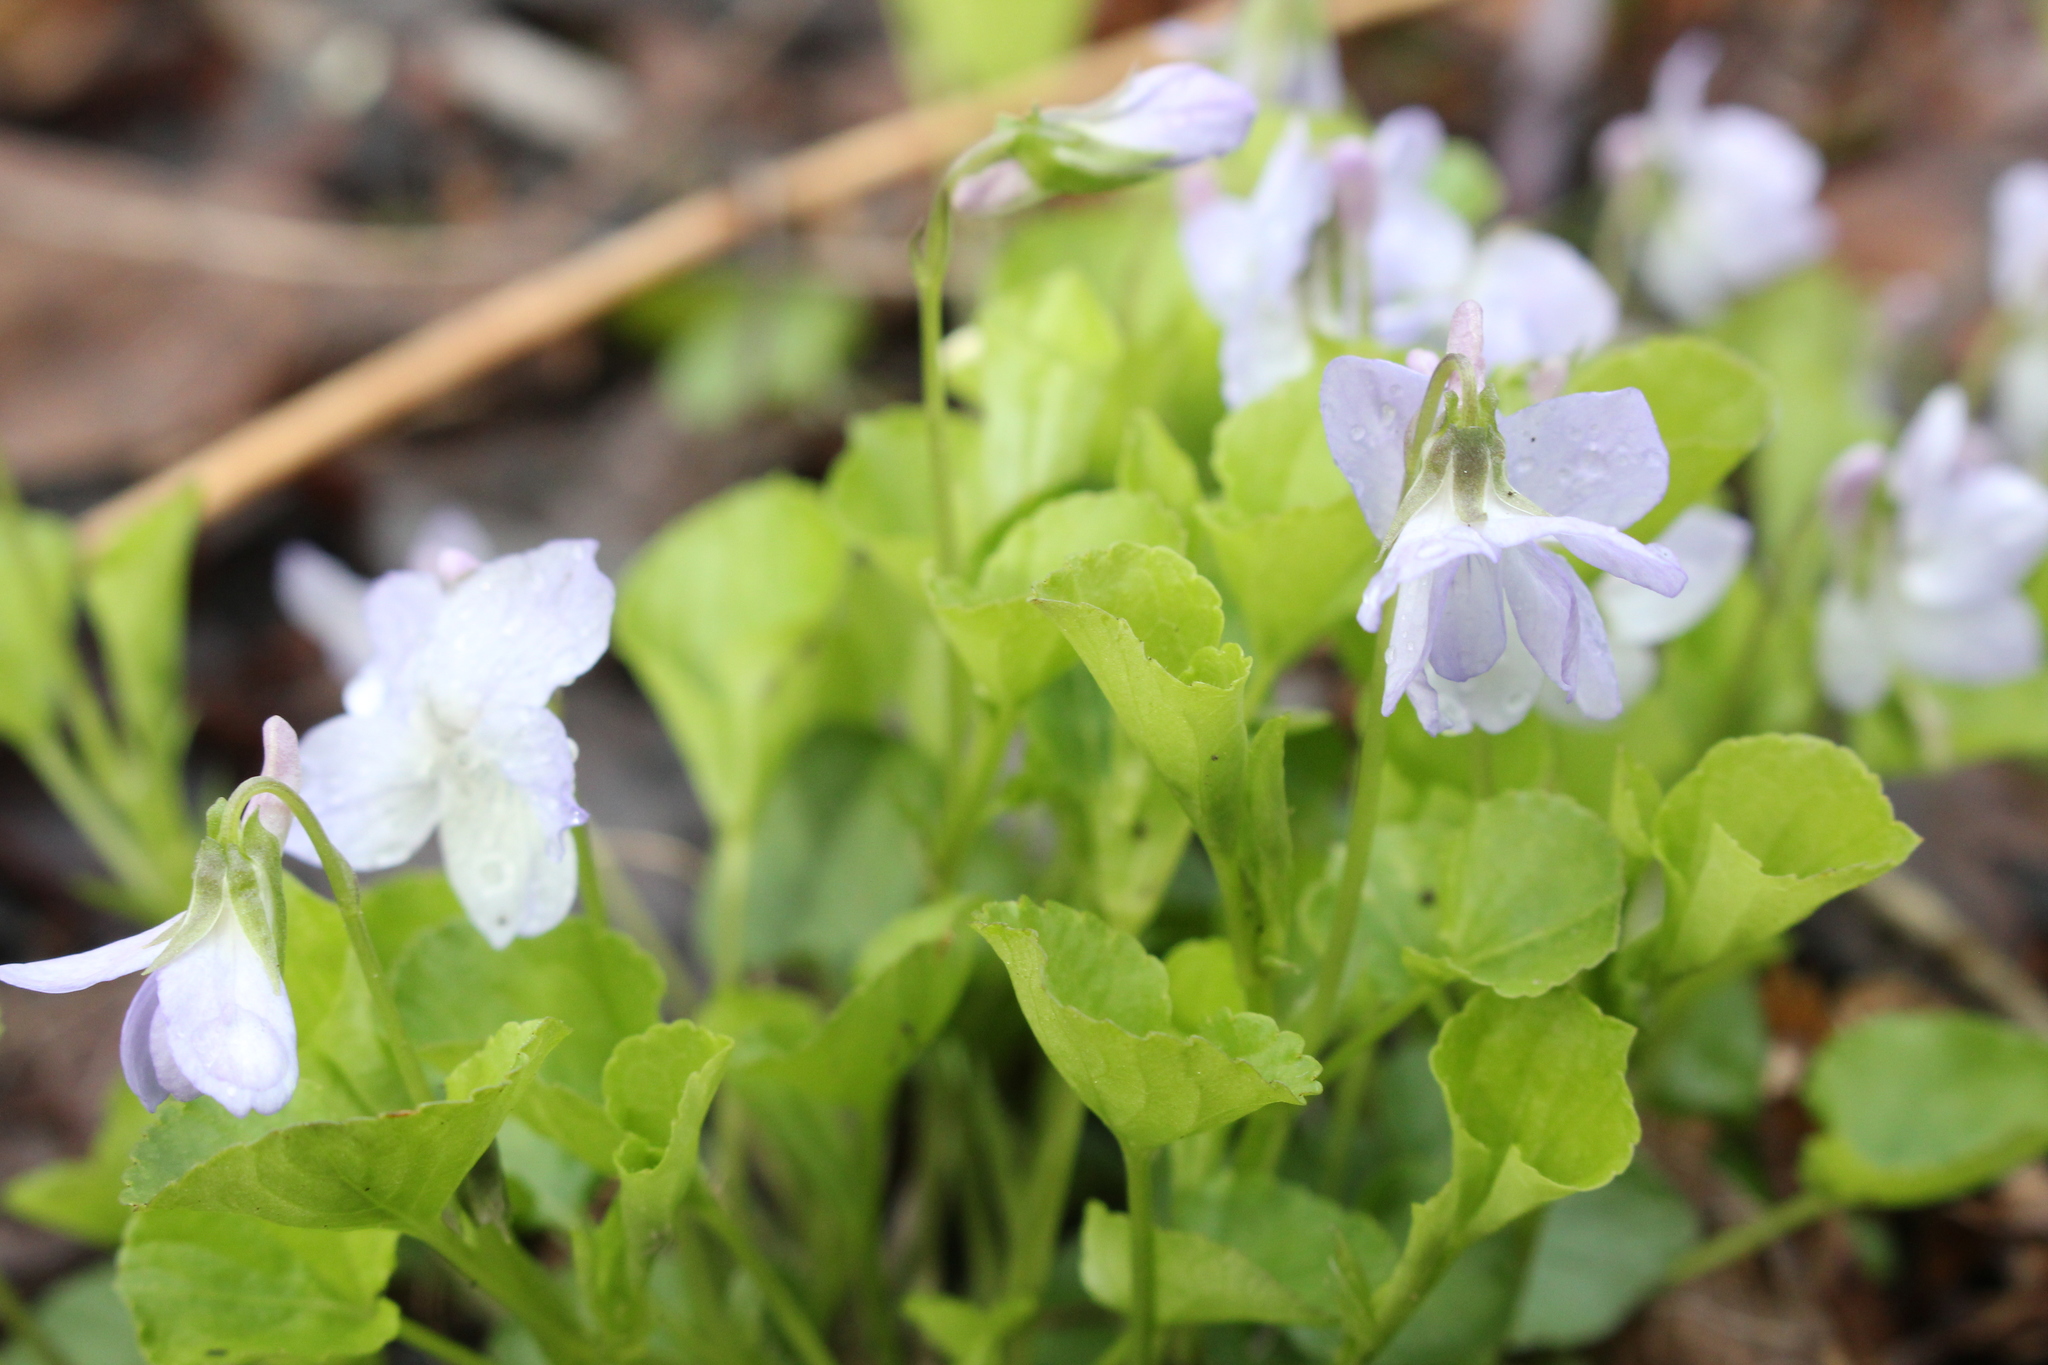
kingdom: Plantae
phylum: Tracheophyta
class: Magnoliopsida
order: Malpighiales
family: Violaceae
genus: Viola
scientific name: Viola labradorica
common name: Labrador violet
